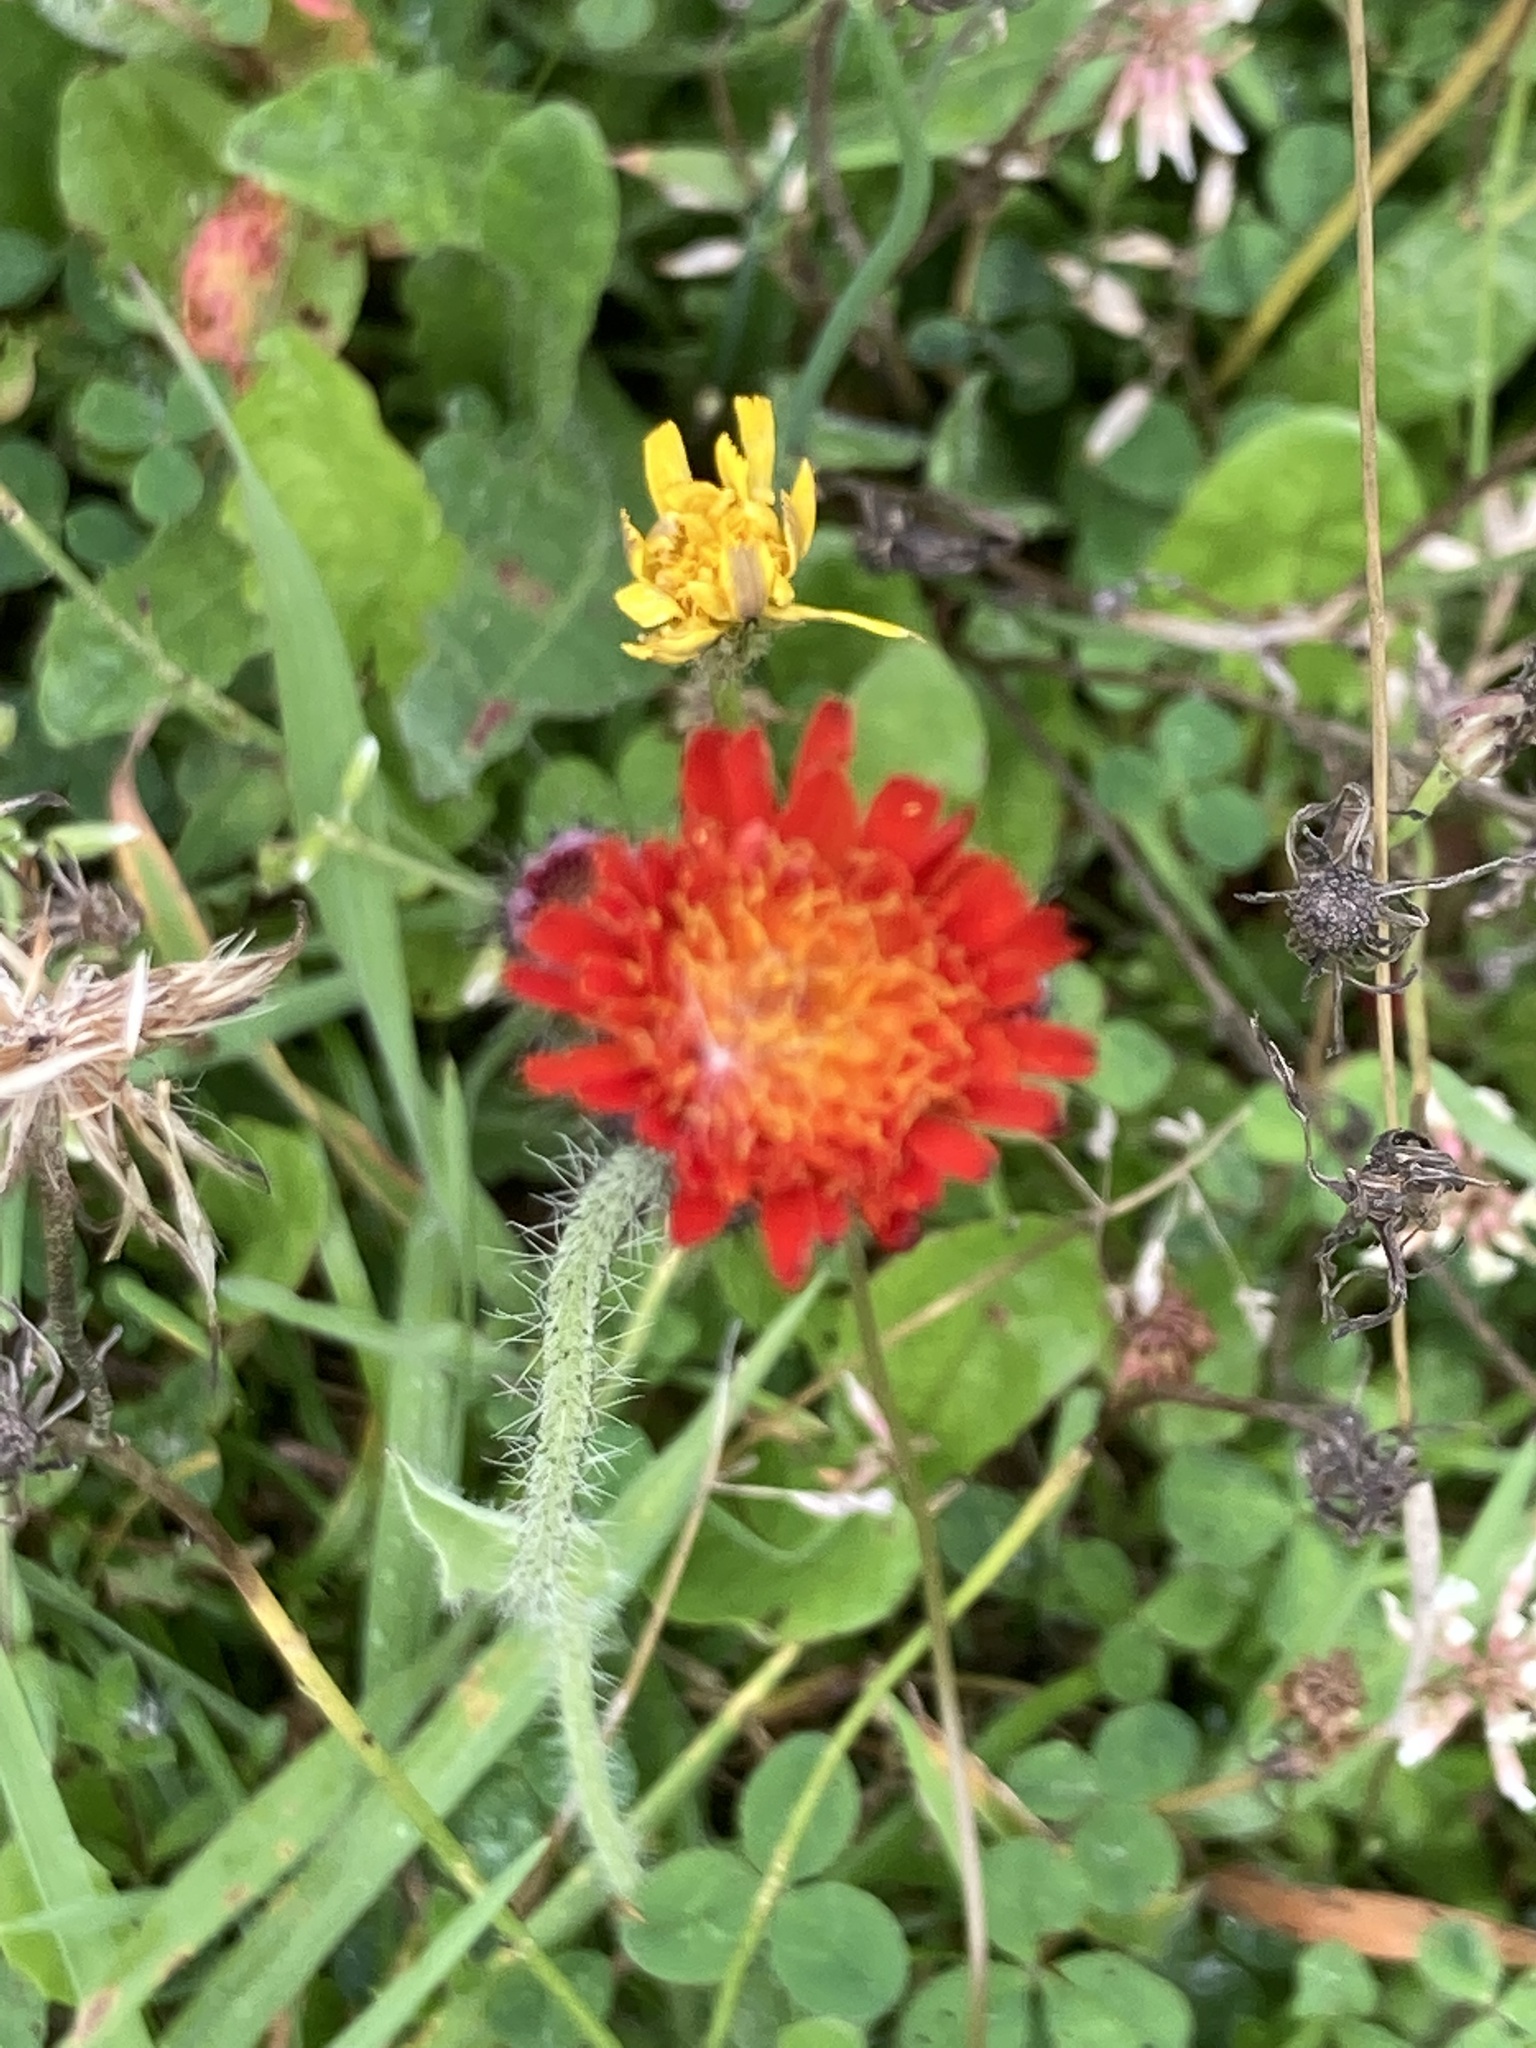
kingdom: Plantae
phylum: Tracheophyta
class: Magnoliopsida
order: Asterales
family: Asteraceae
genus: Pilosella
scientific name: Pilosella aurantiaca
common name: Fox-and-cubs
